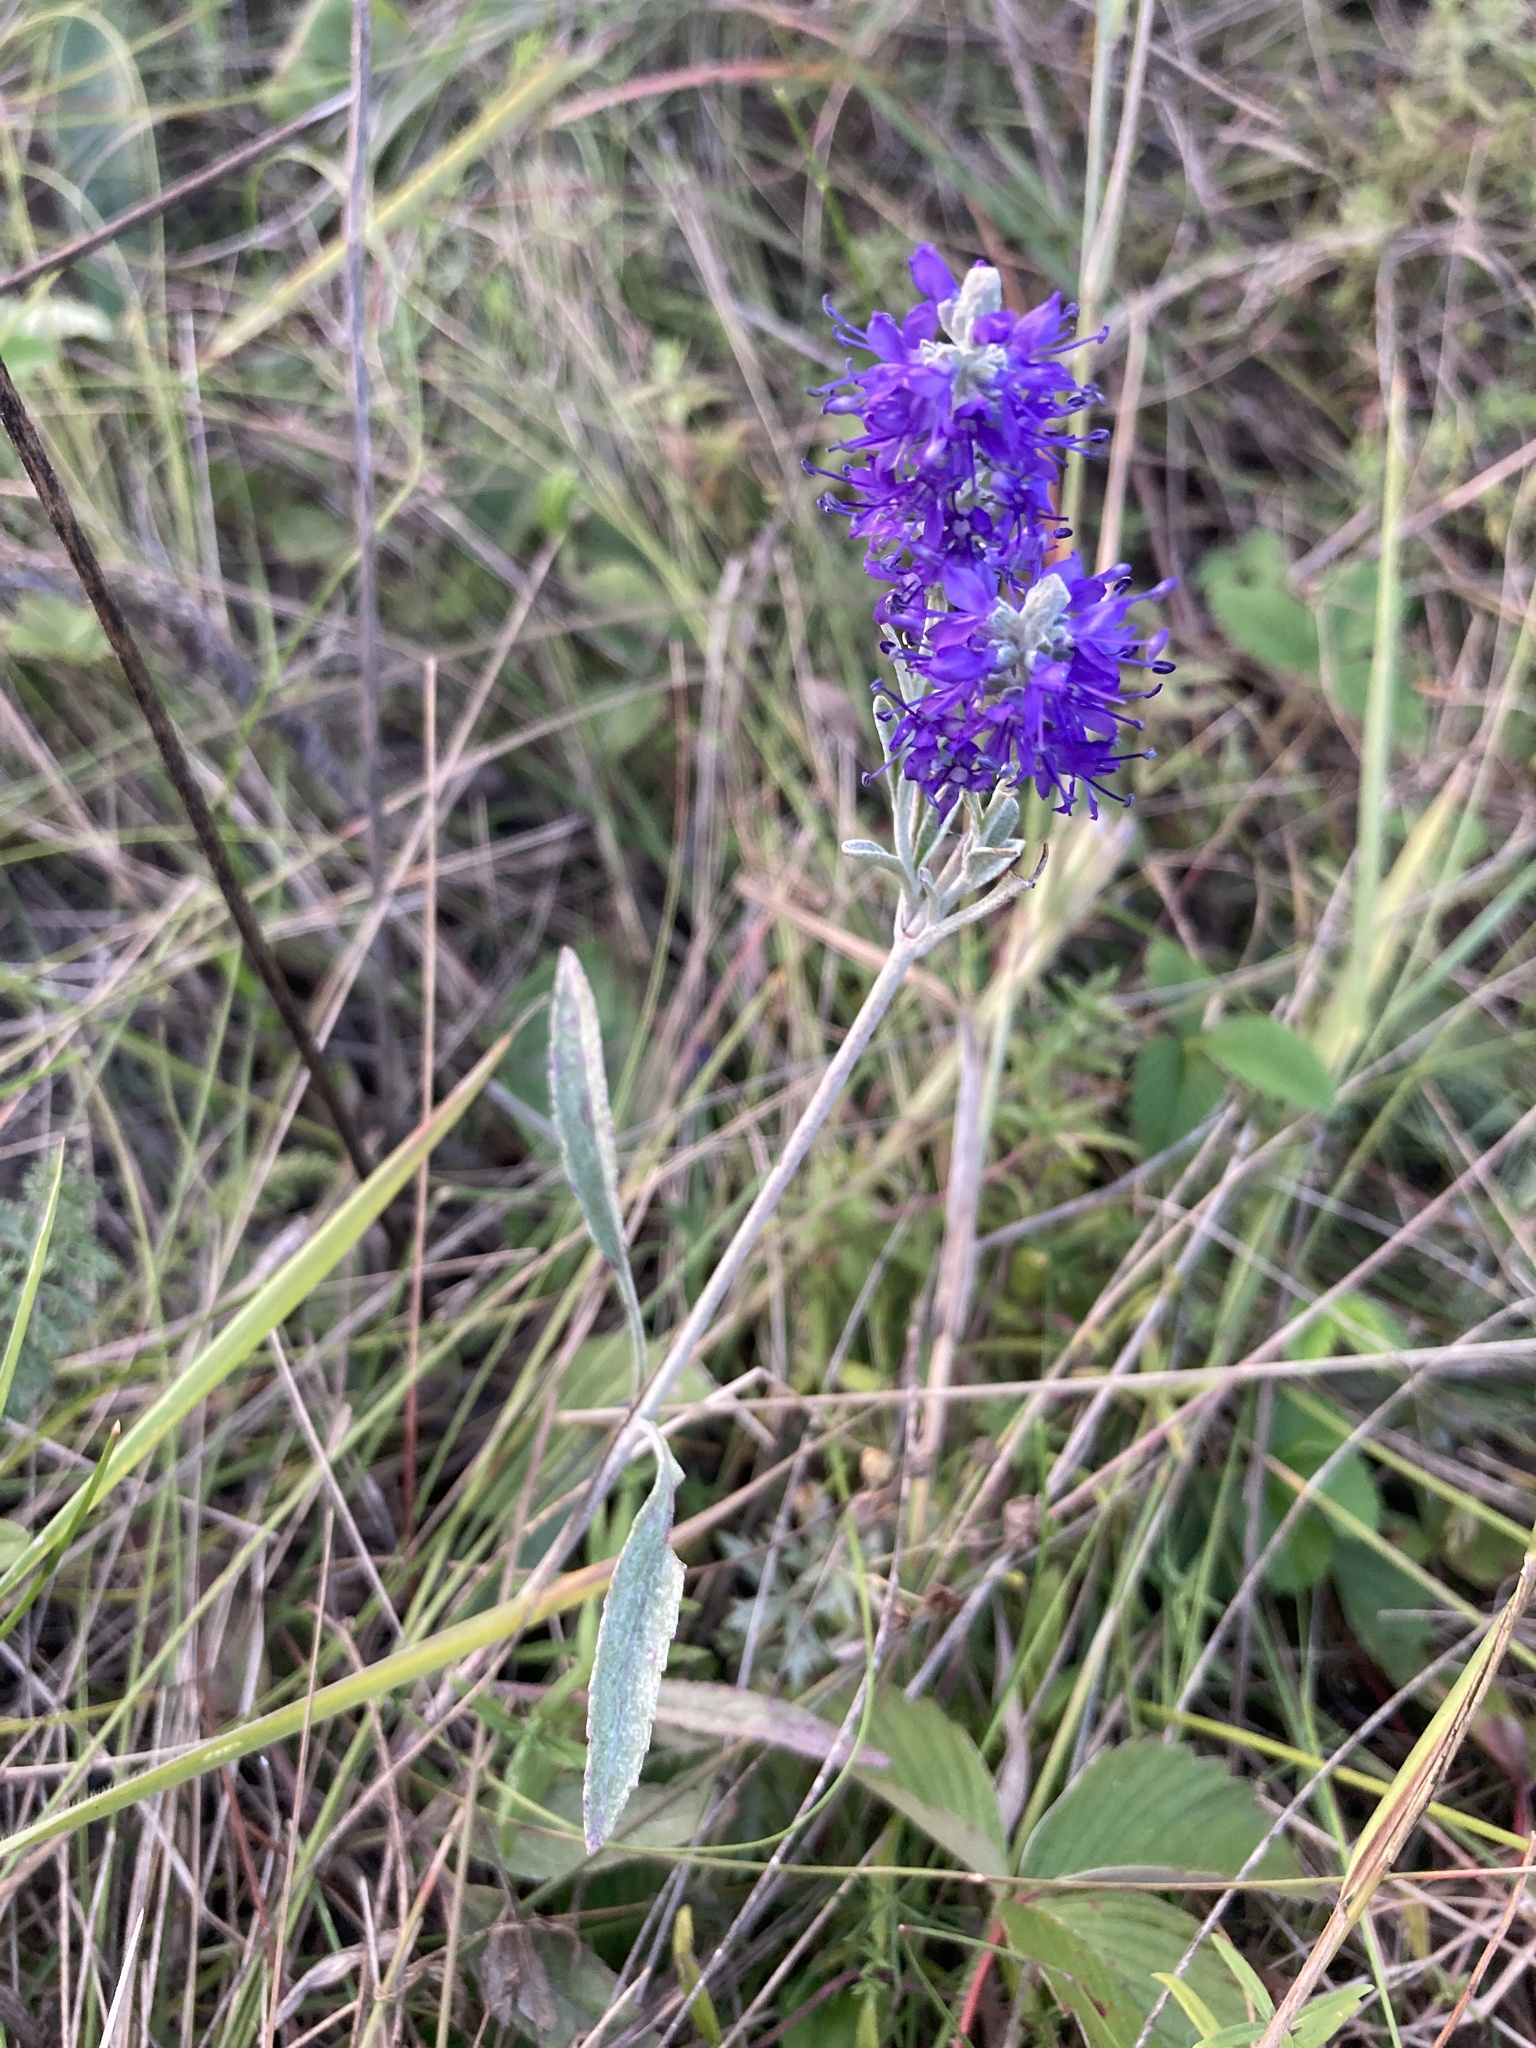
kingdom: Plantae
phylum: Tracheophyta
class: Magnoliopsida
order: Lamiales
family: Plantaginaceae
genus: Veronica
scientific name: Veronica incana
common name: Silver speedwell
